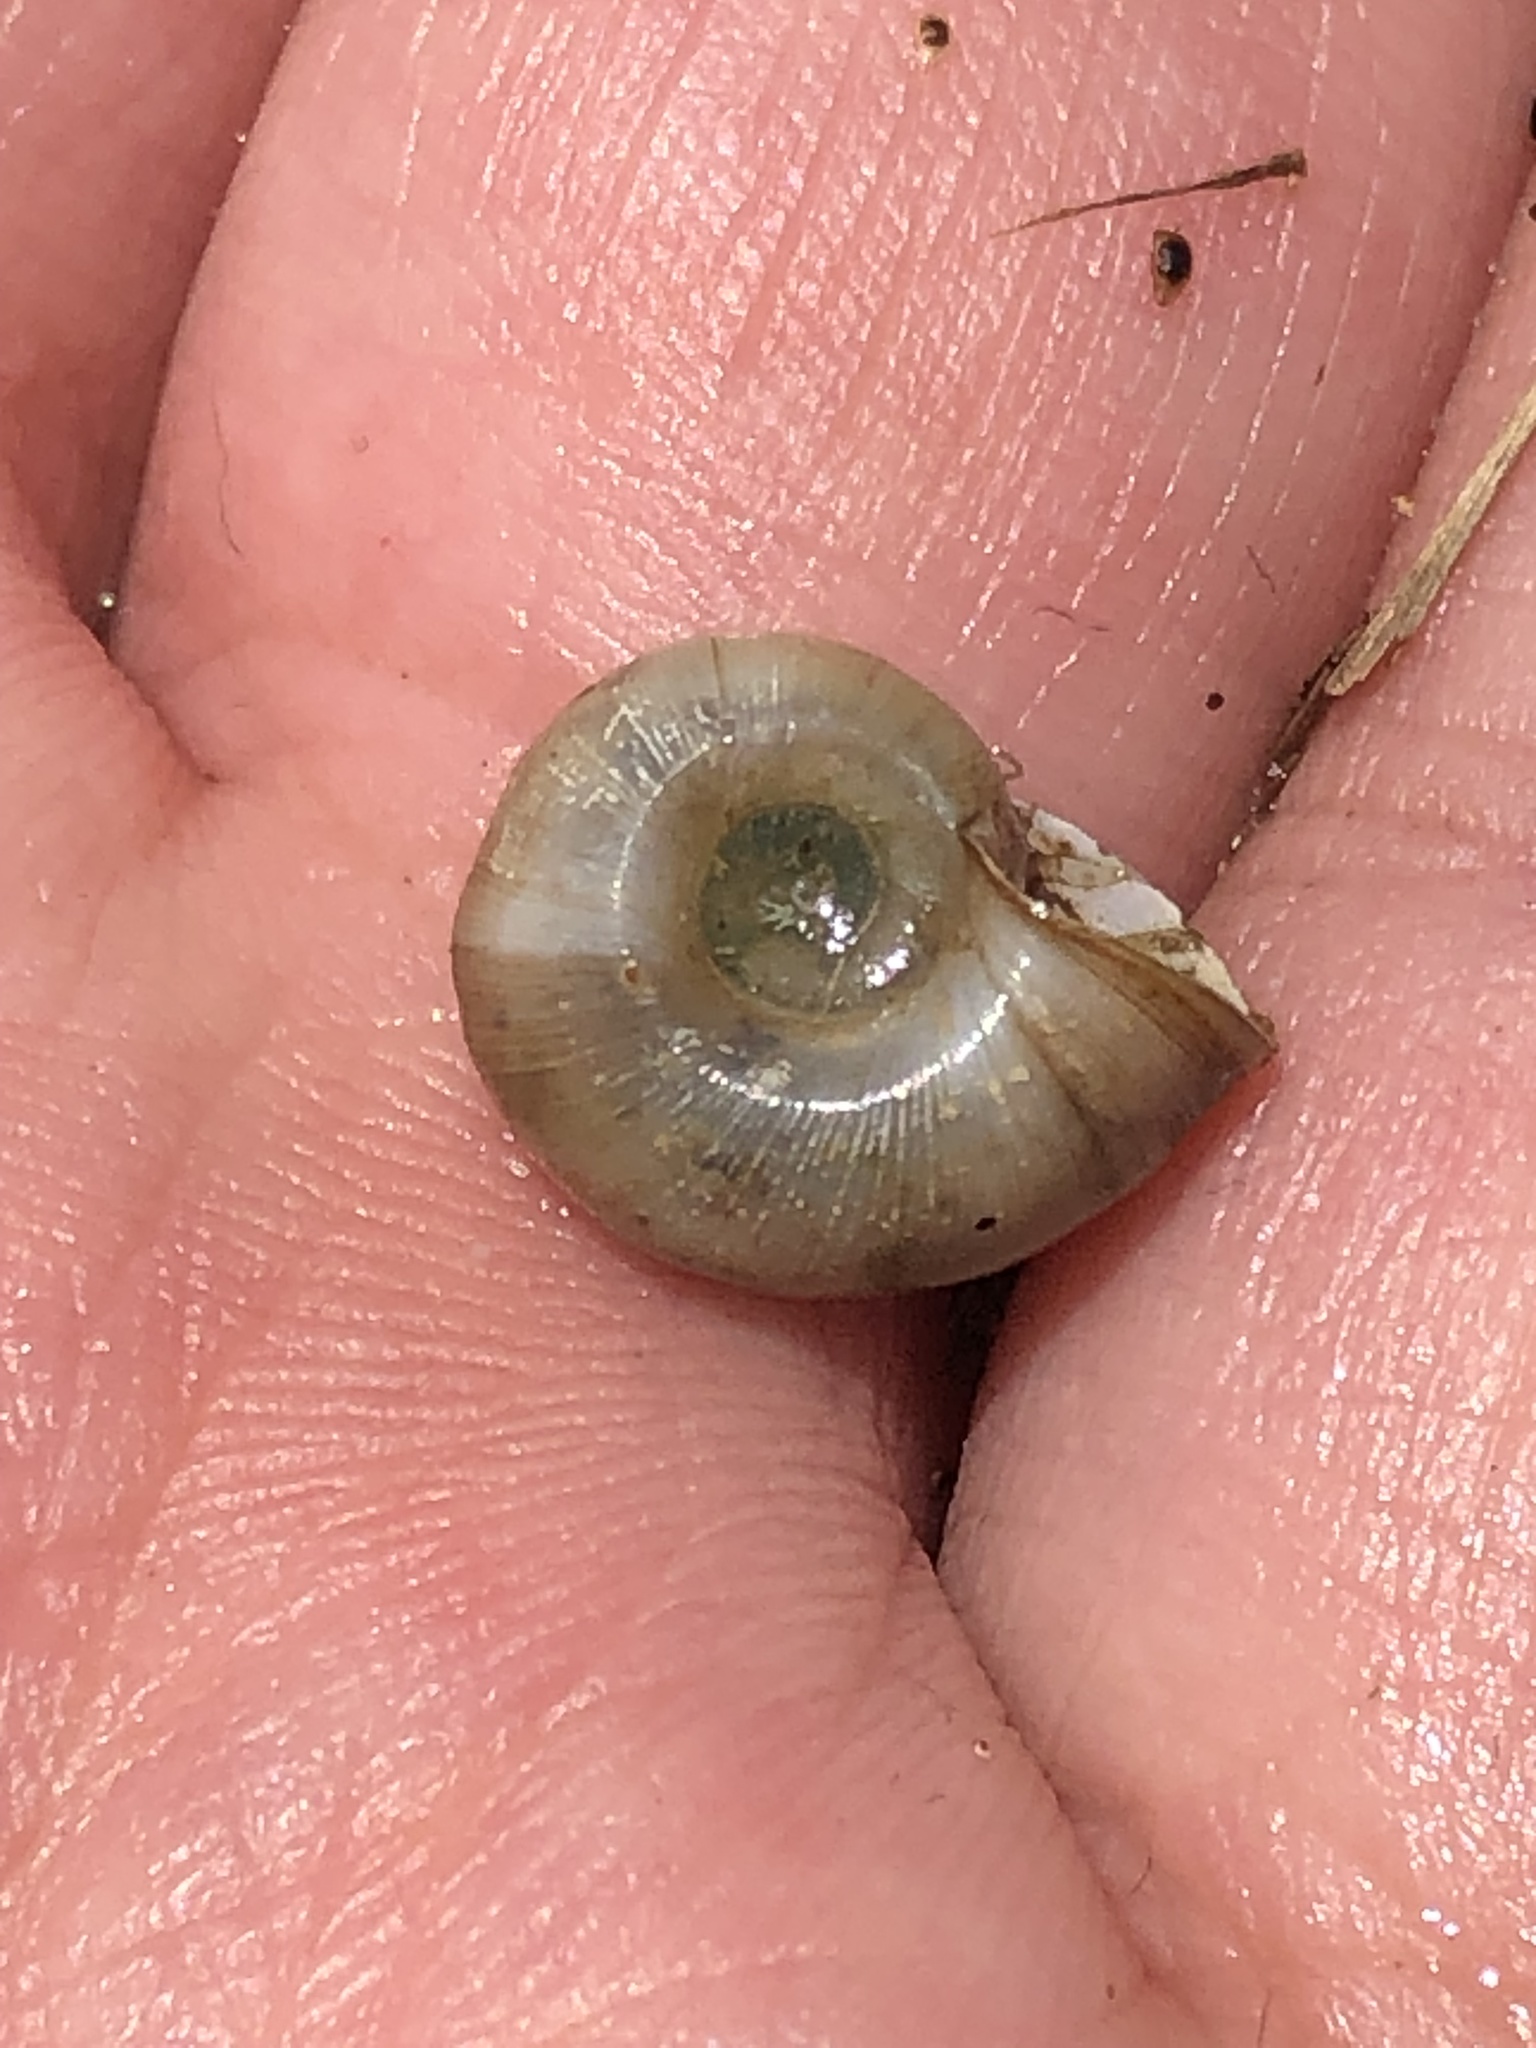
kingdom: Animalia
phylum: Mollusca
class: Gastropoda
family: Planorbidae
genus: Planorbella
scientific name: Planorbella trivolvis
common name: Marsh rams-horn
